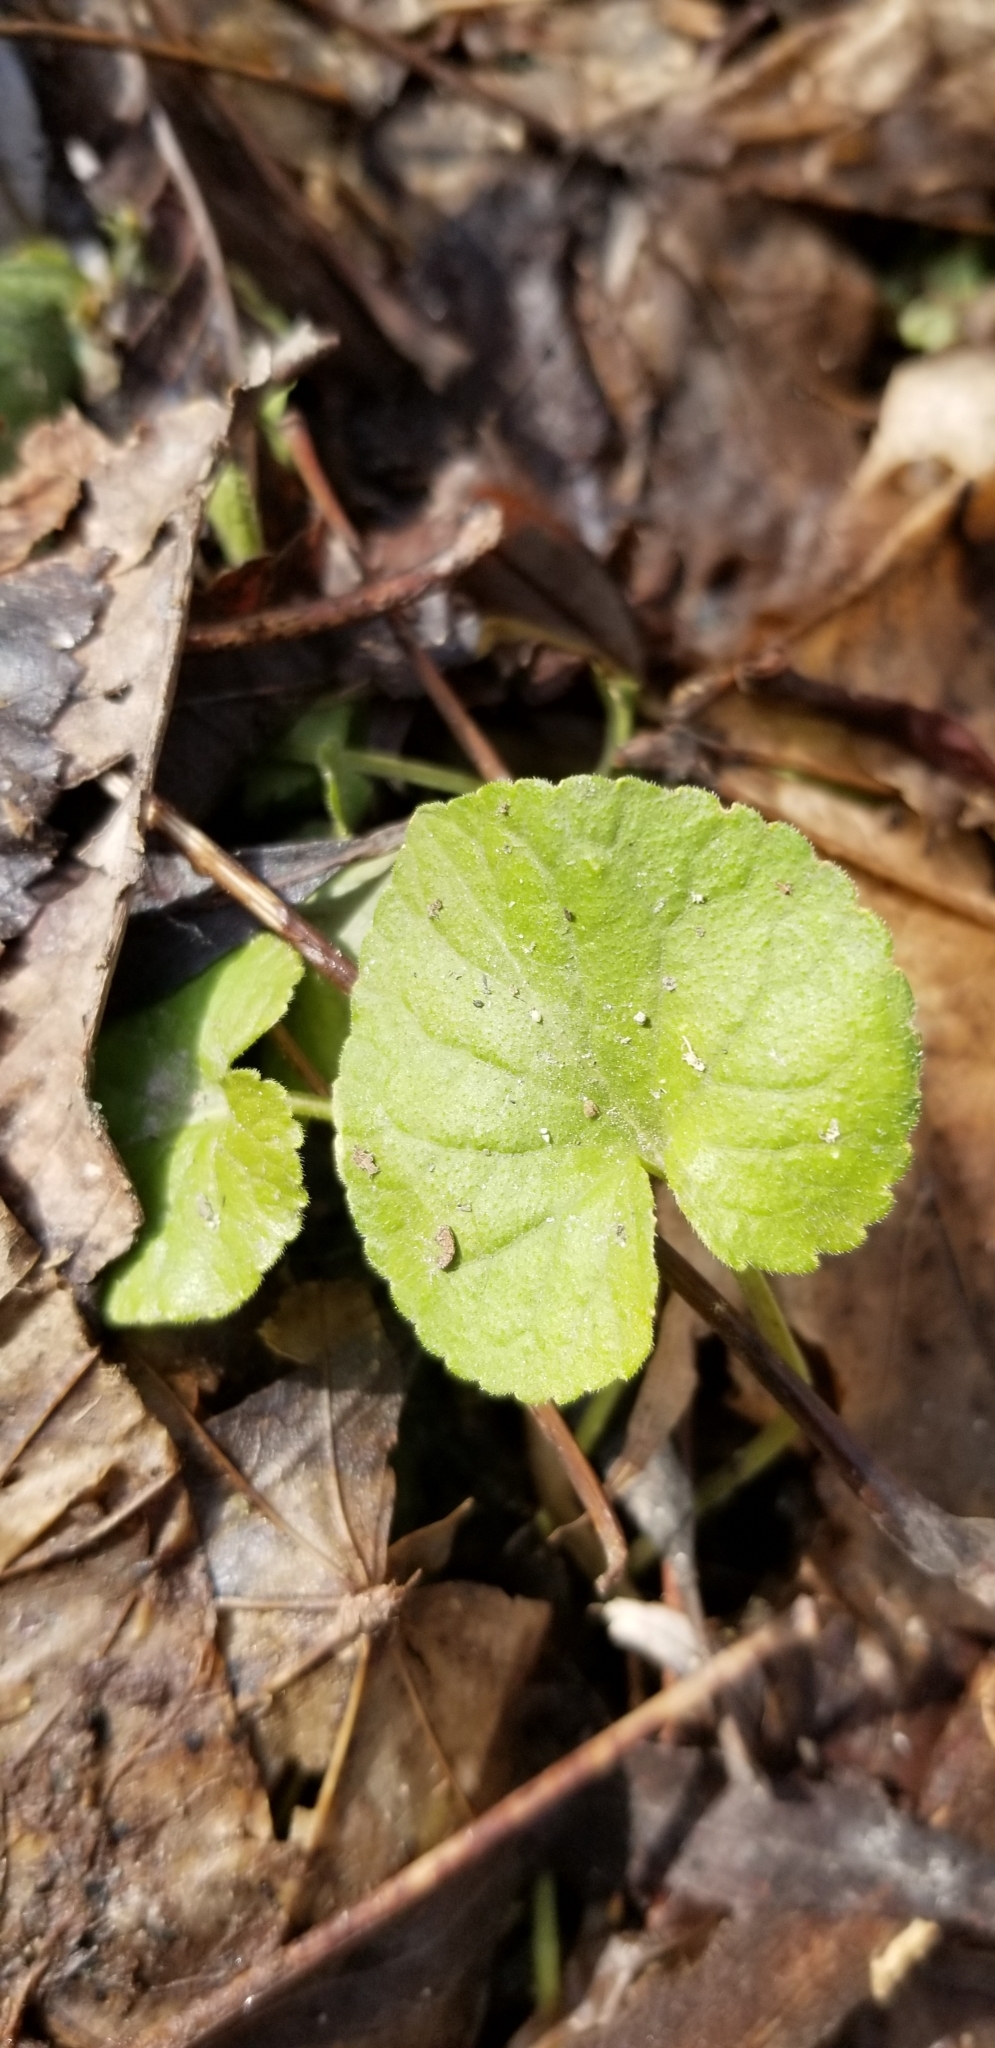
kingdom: Plantae
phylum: Tracheophyta
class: Magnoliopsida
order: Malpighiales
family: Violaceae
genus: Viola
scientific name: Viola
